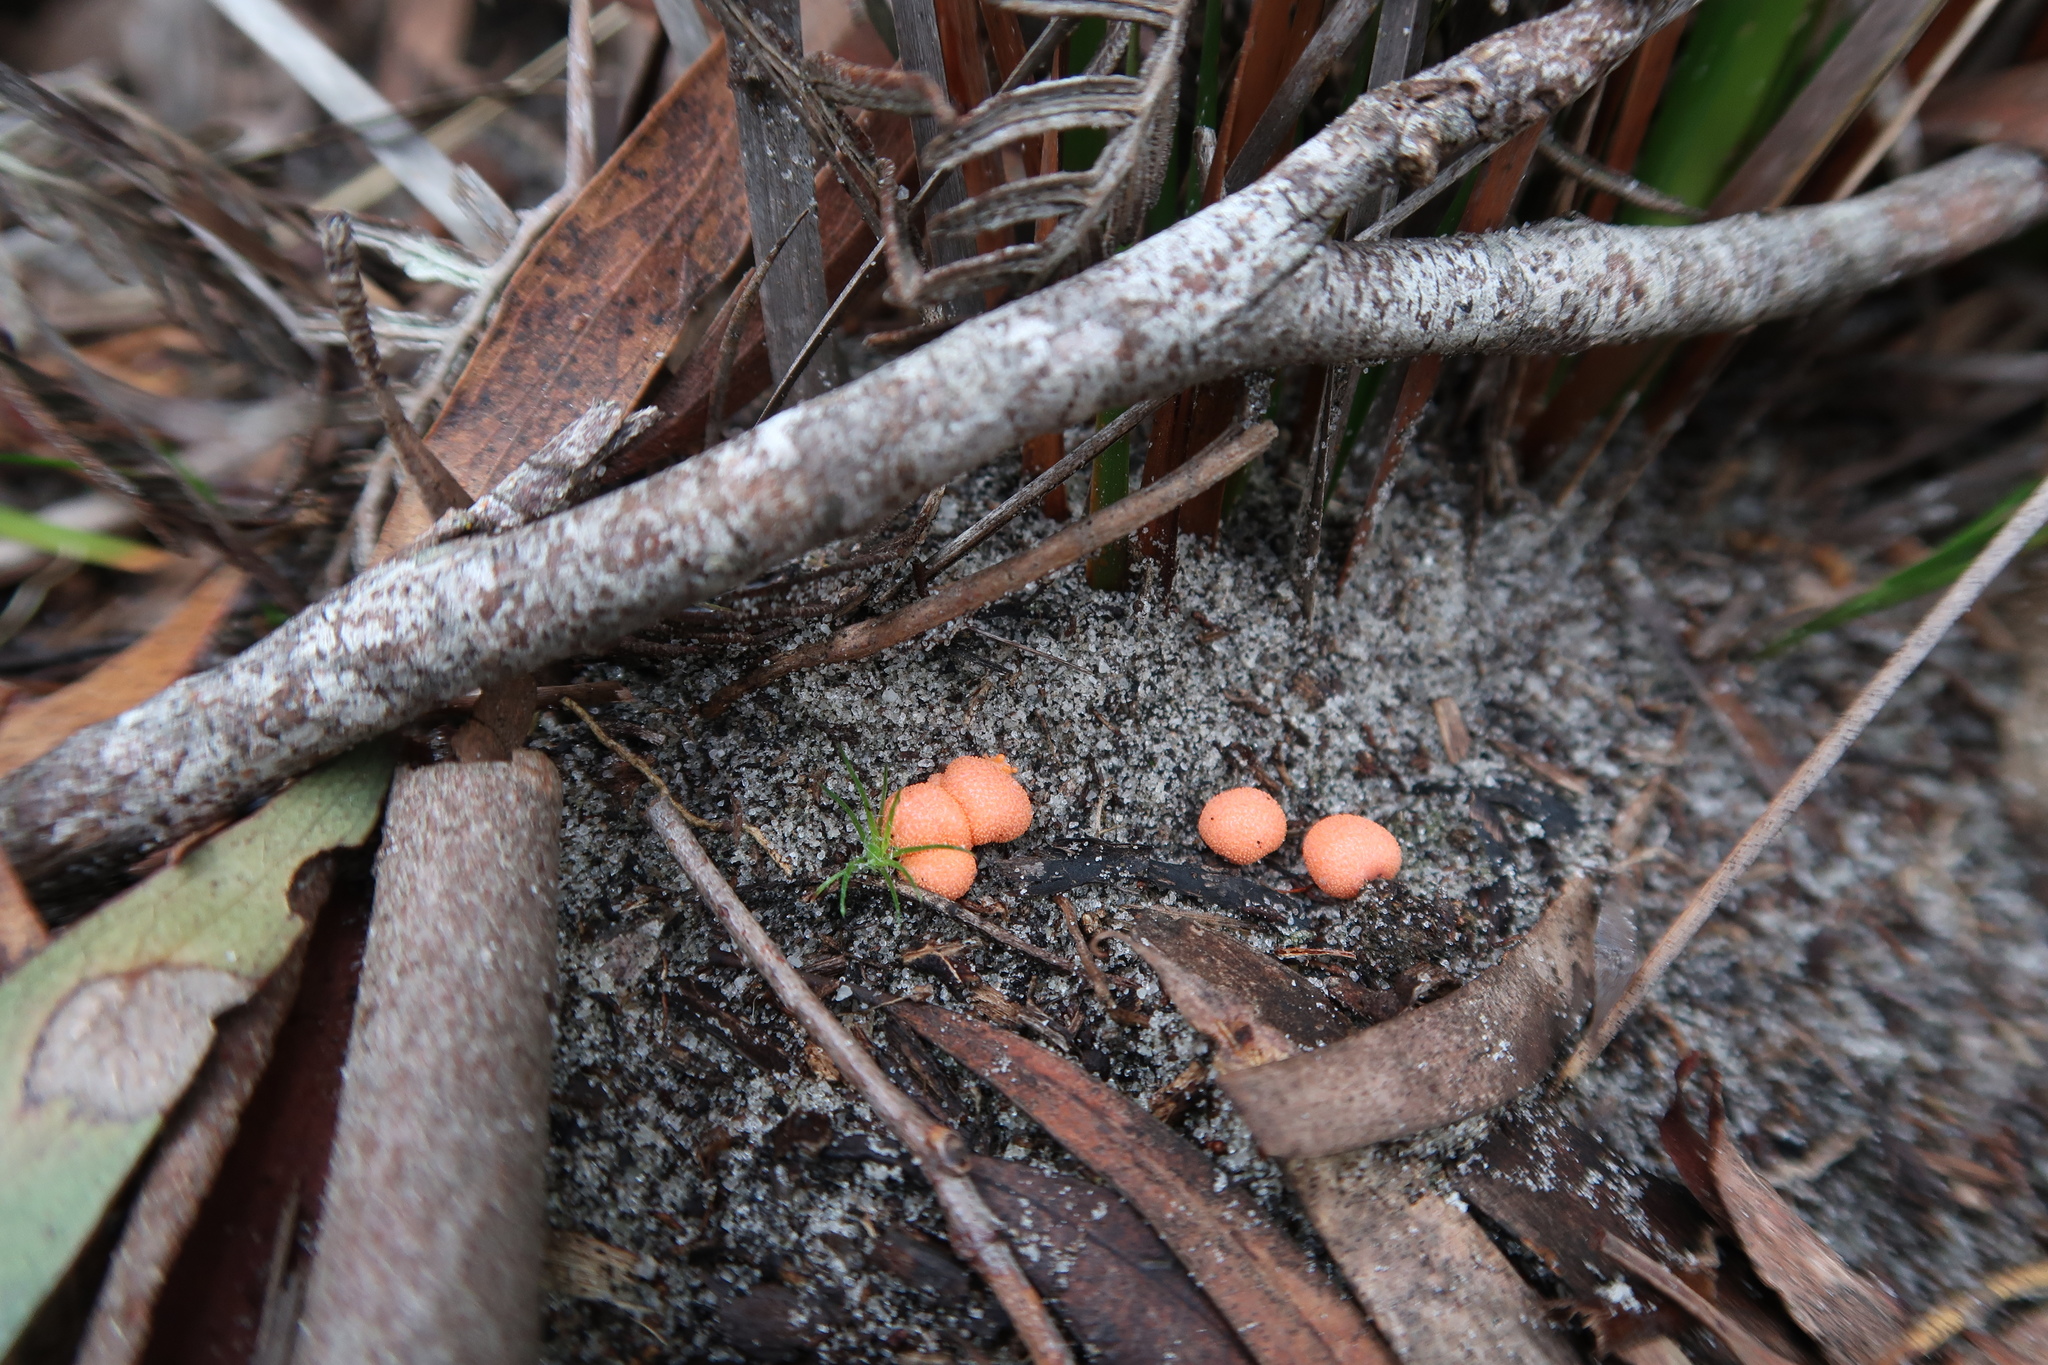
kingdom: Protozoa
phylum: Mycetozoa
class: Myxomycetes
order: Cribrariales
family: Tubiferaceae
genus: Lycogala
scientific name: Lycogala epidendrum
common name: Wolf's milk
